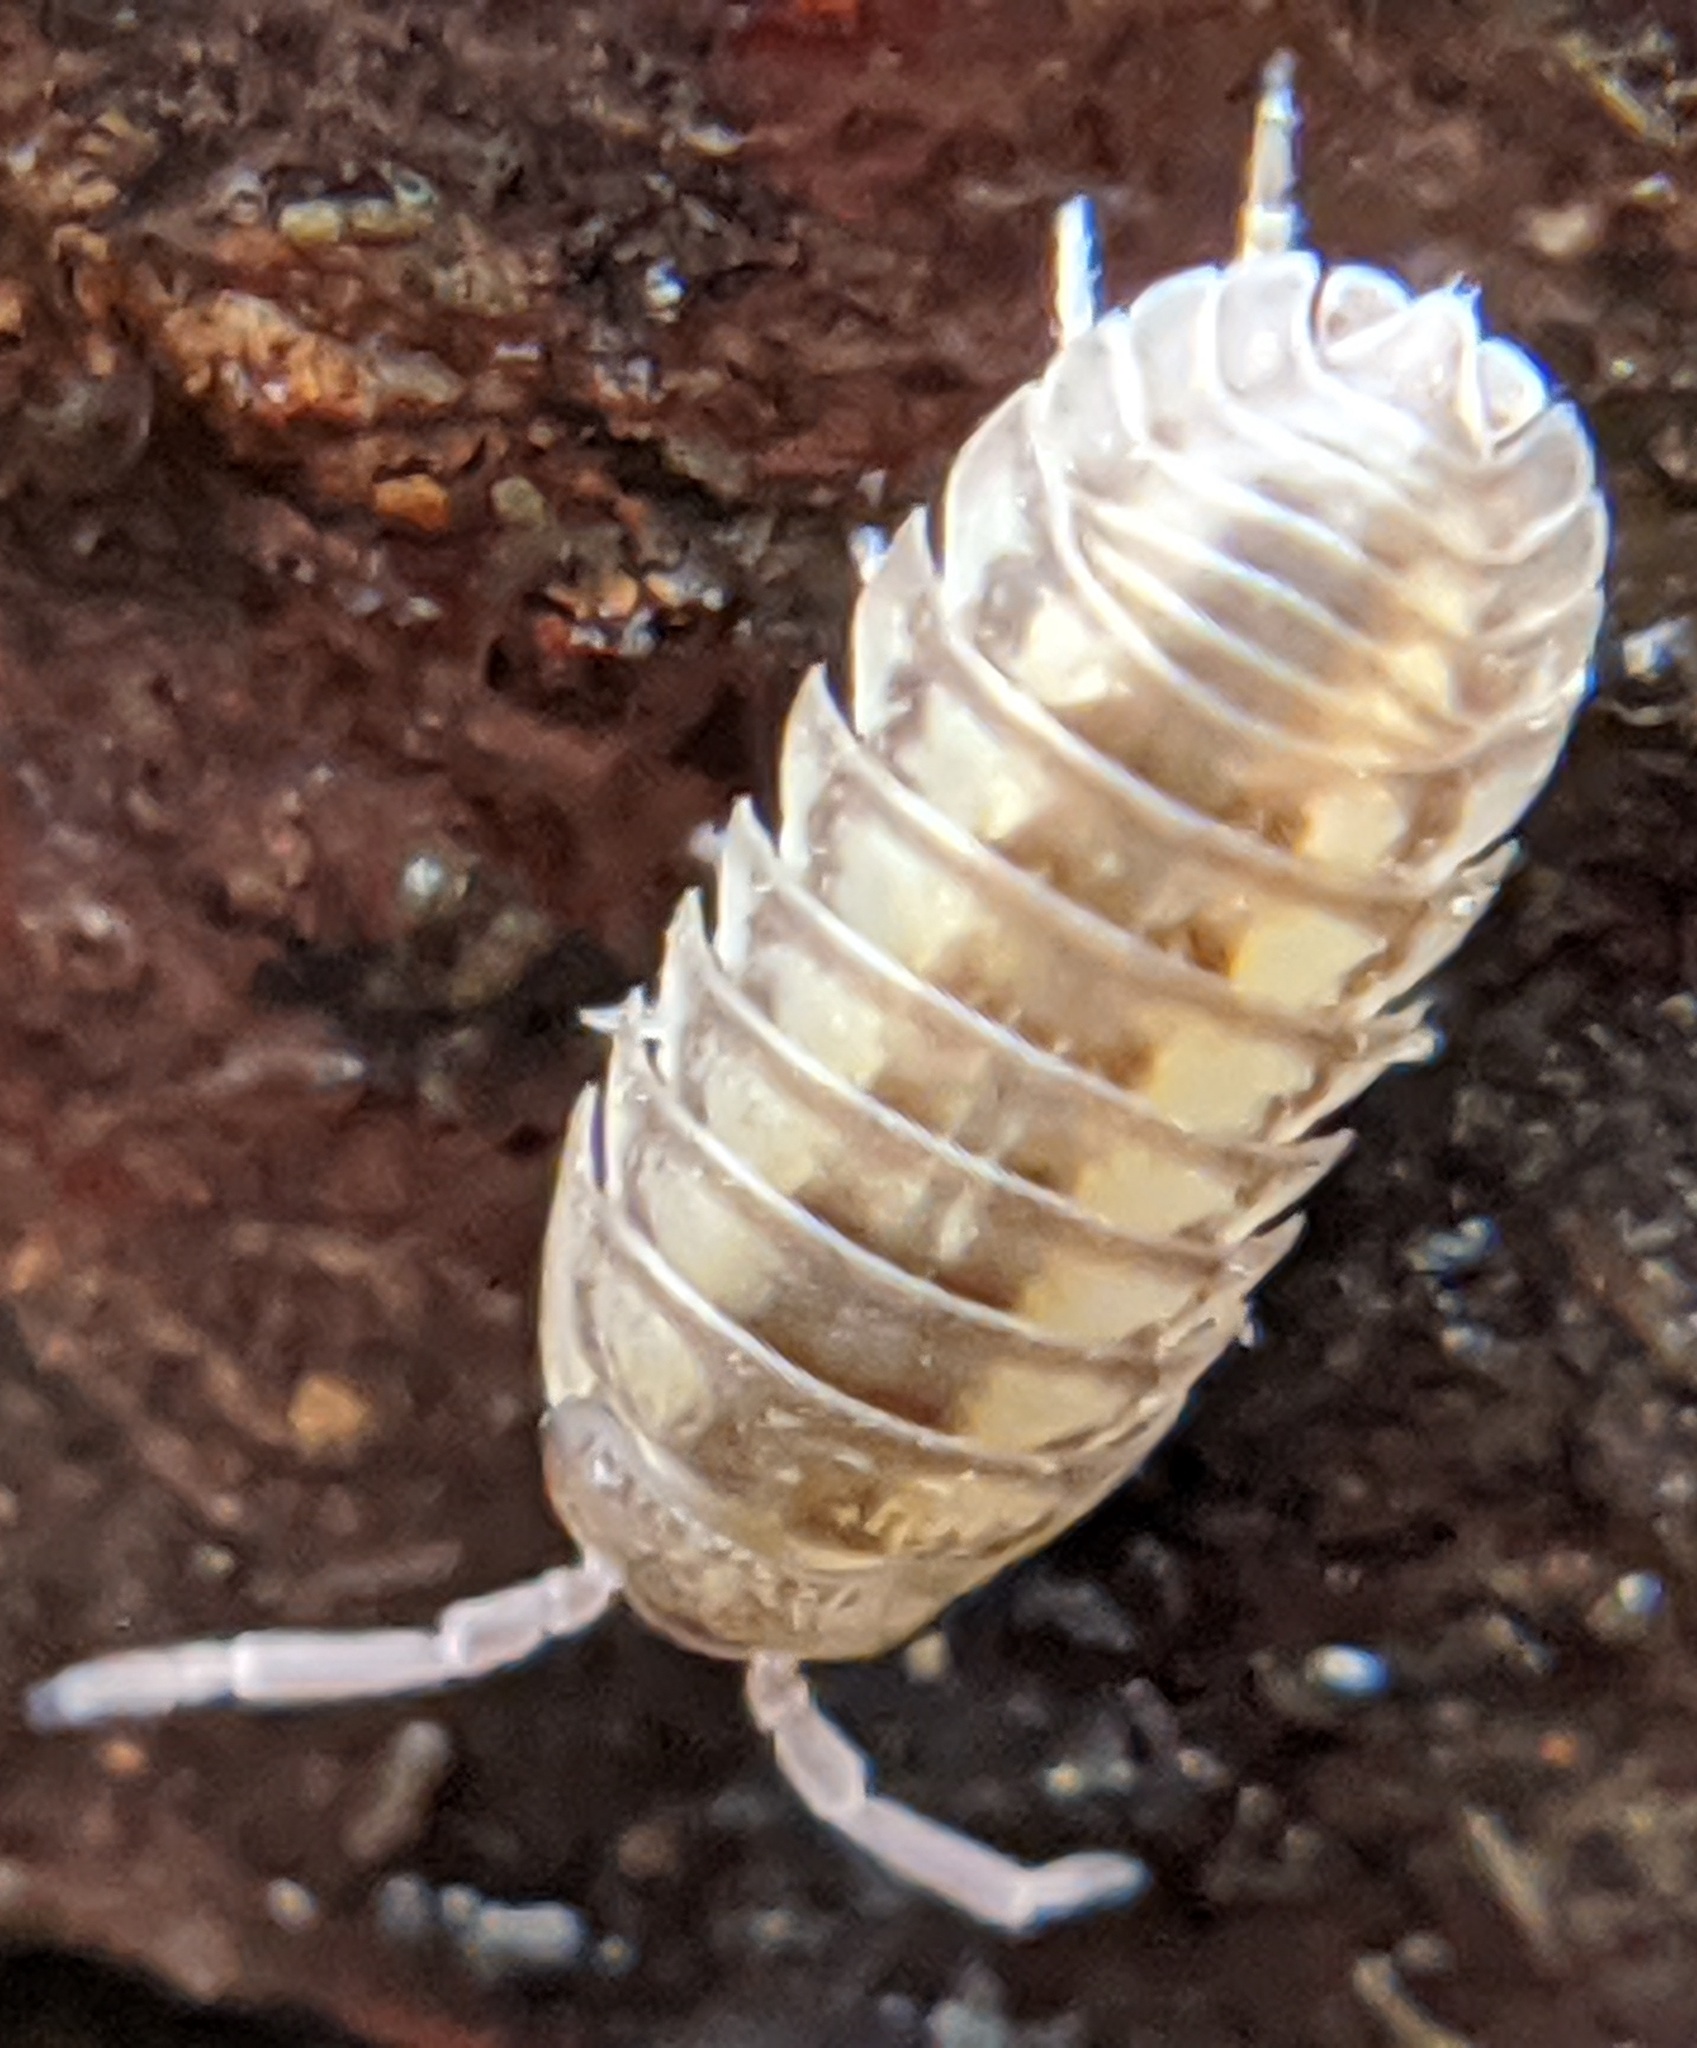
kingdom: Animalia
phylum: Arthropoda
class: Malacostraca
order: Isopoda
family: Armadillidiidae
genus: Armadillidium
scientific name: Armadillidium nasatum
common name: Isopod
